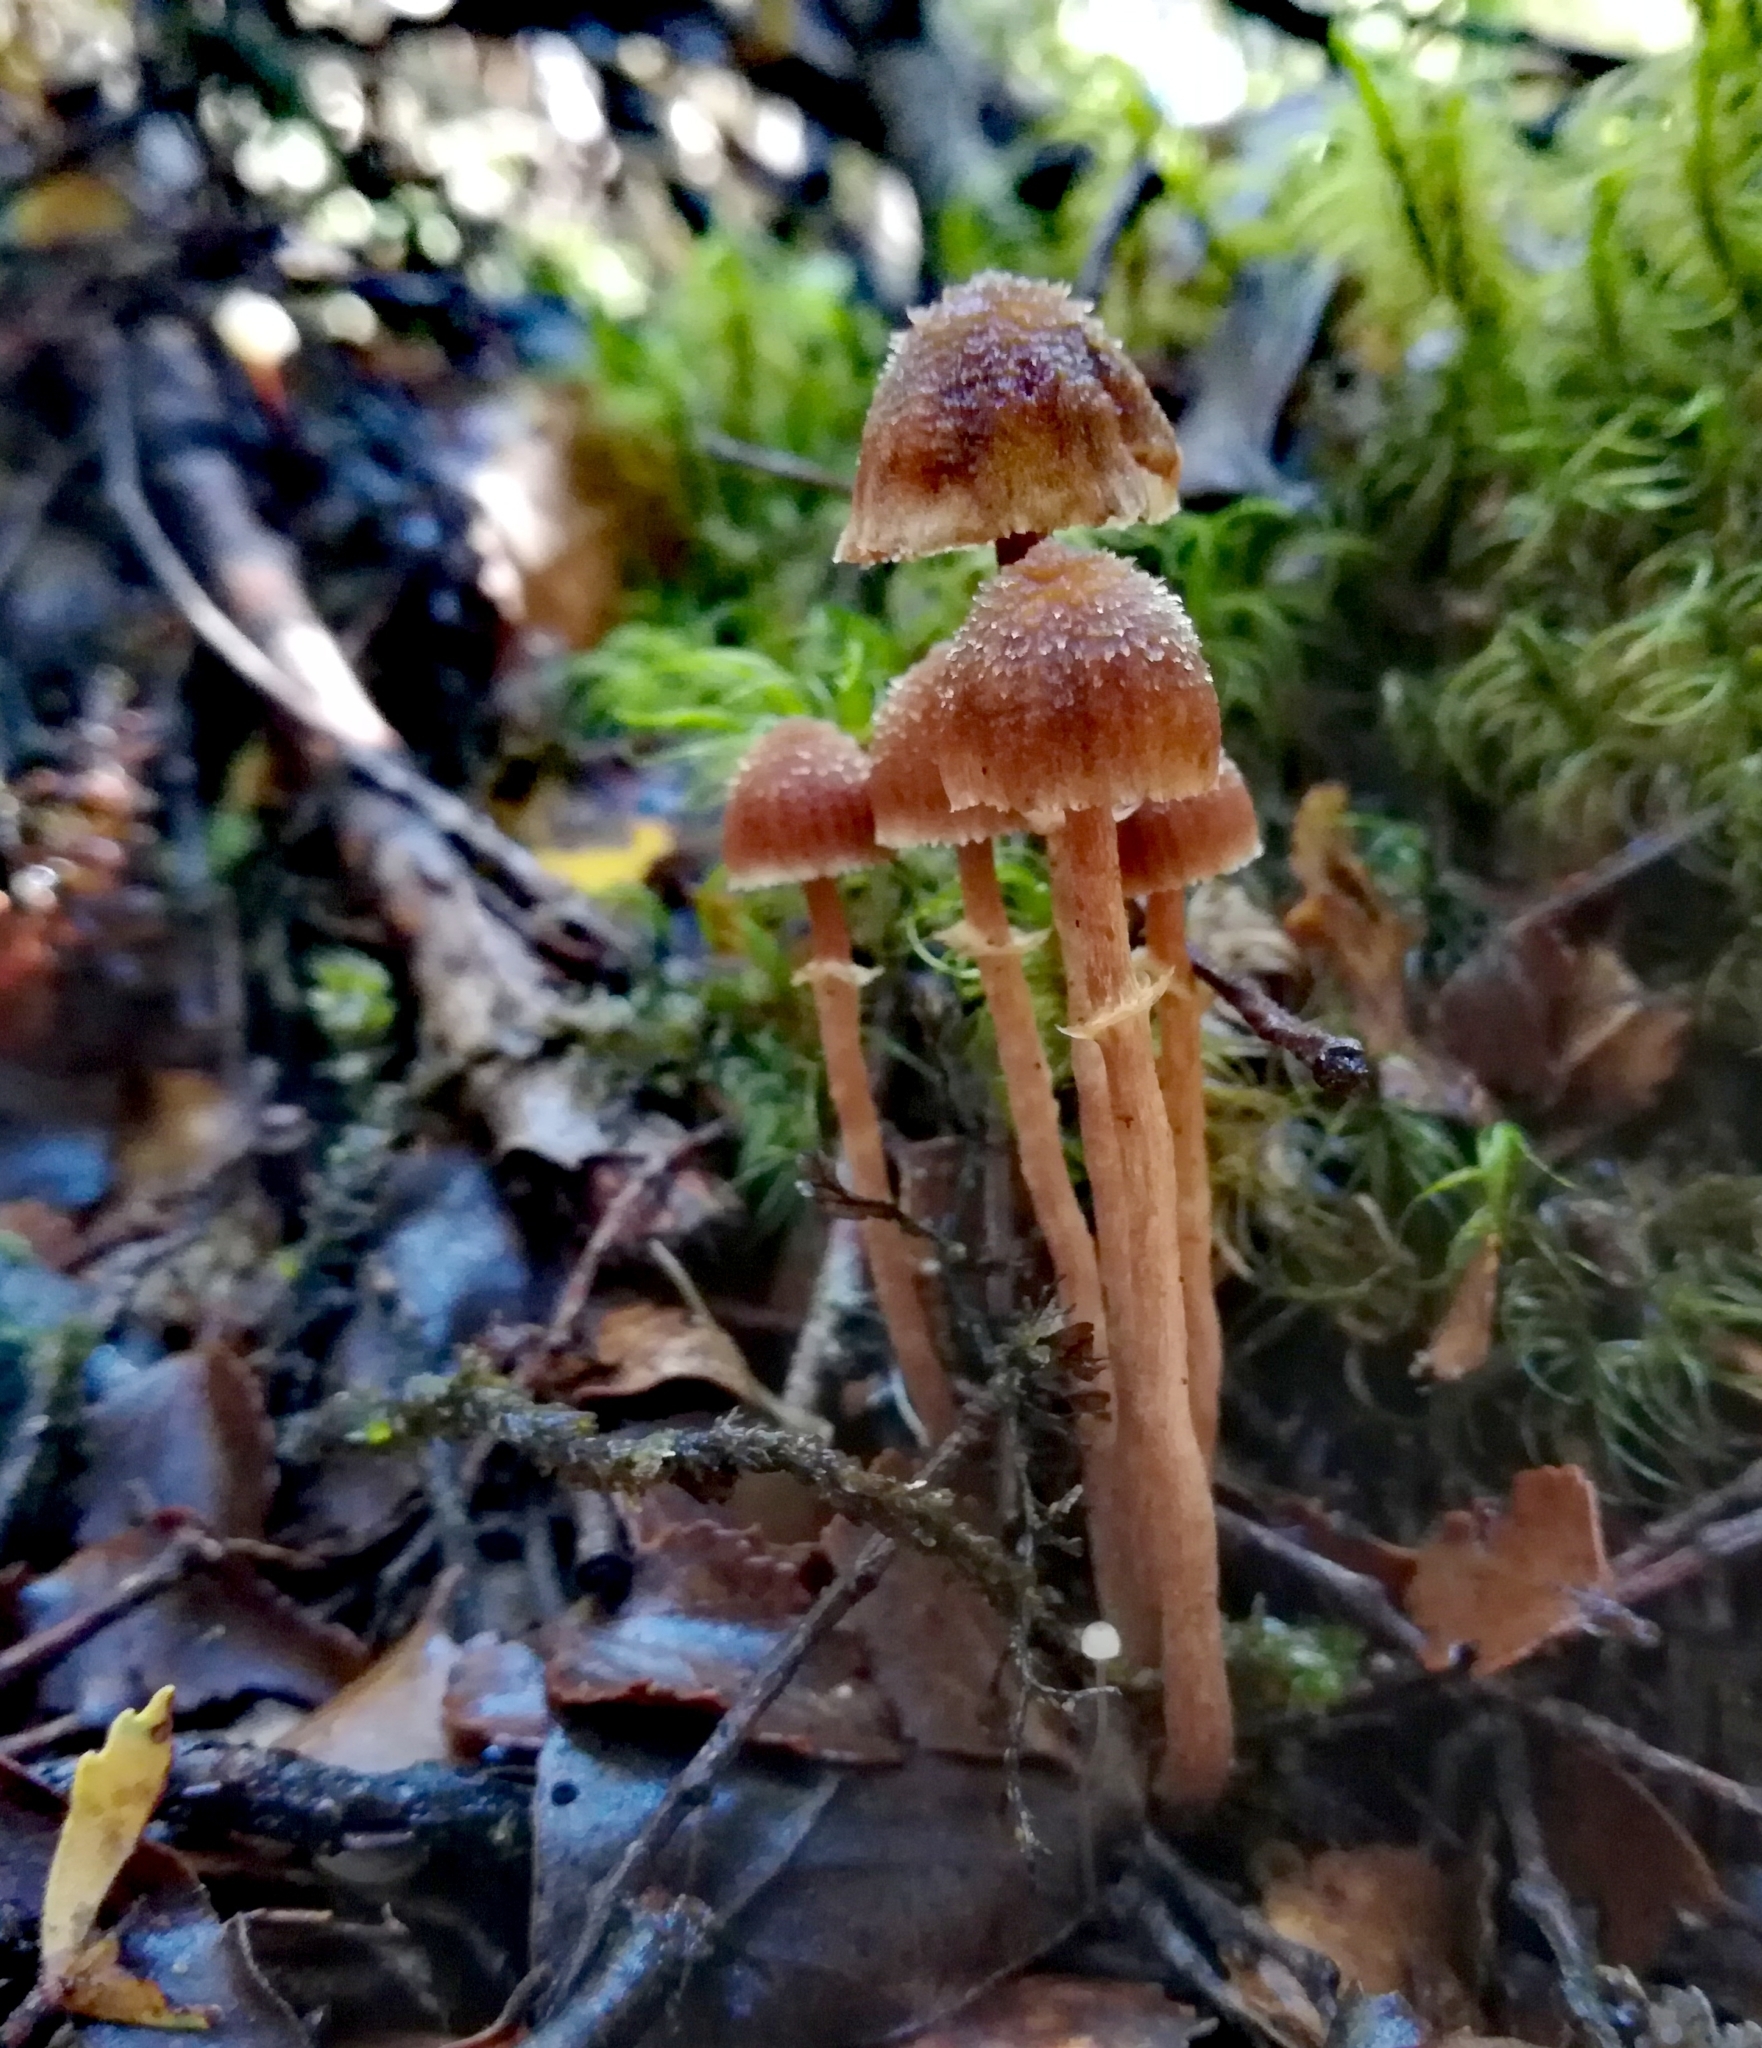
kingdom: Fungi
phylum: Basidiomycota
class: Agaricomycetes
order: Agaricales
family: Cortinariaceae
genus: Cortinarius
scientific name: Cortinarius lanceolatus
